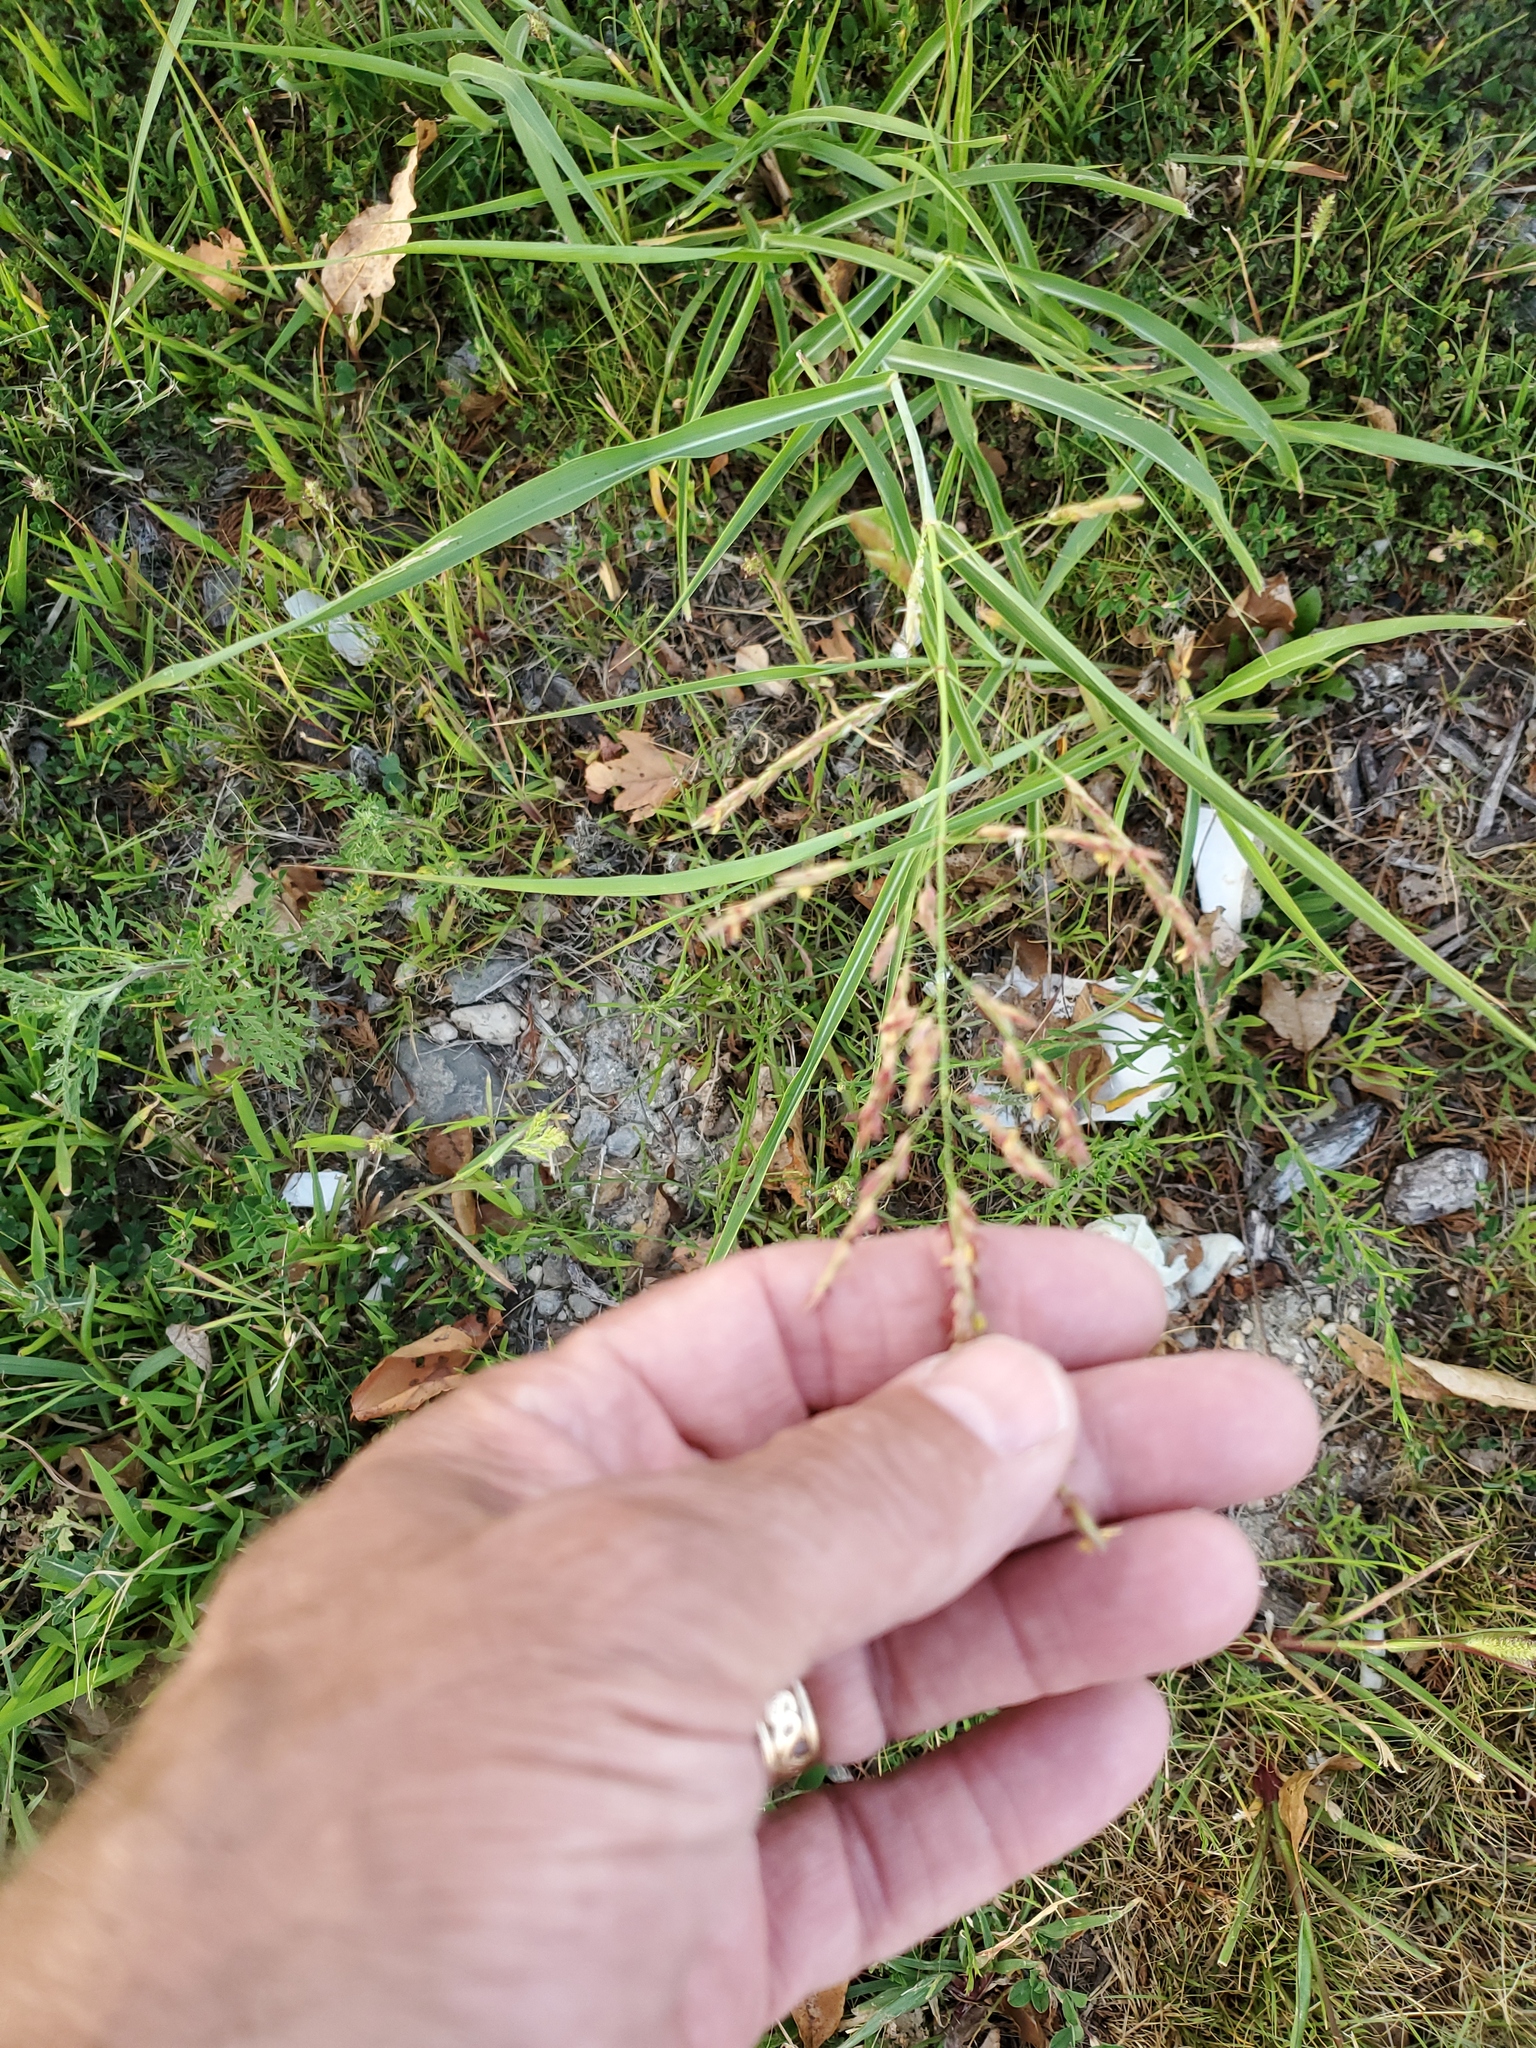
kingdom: Plantae
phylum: Tracheophyta
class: Liliopsida
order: Poales
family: Poaceae
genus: Sorghum
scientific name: Sorghum halepense
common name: Johnson-grass
